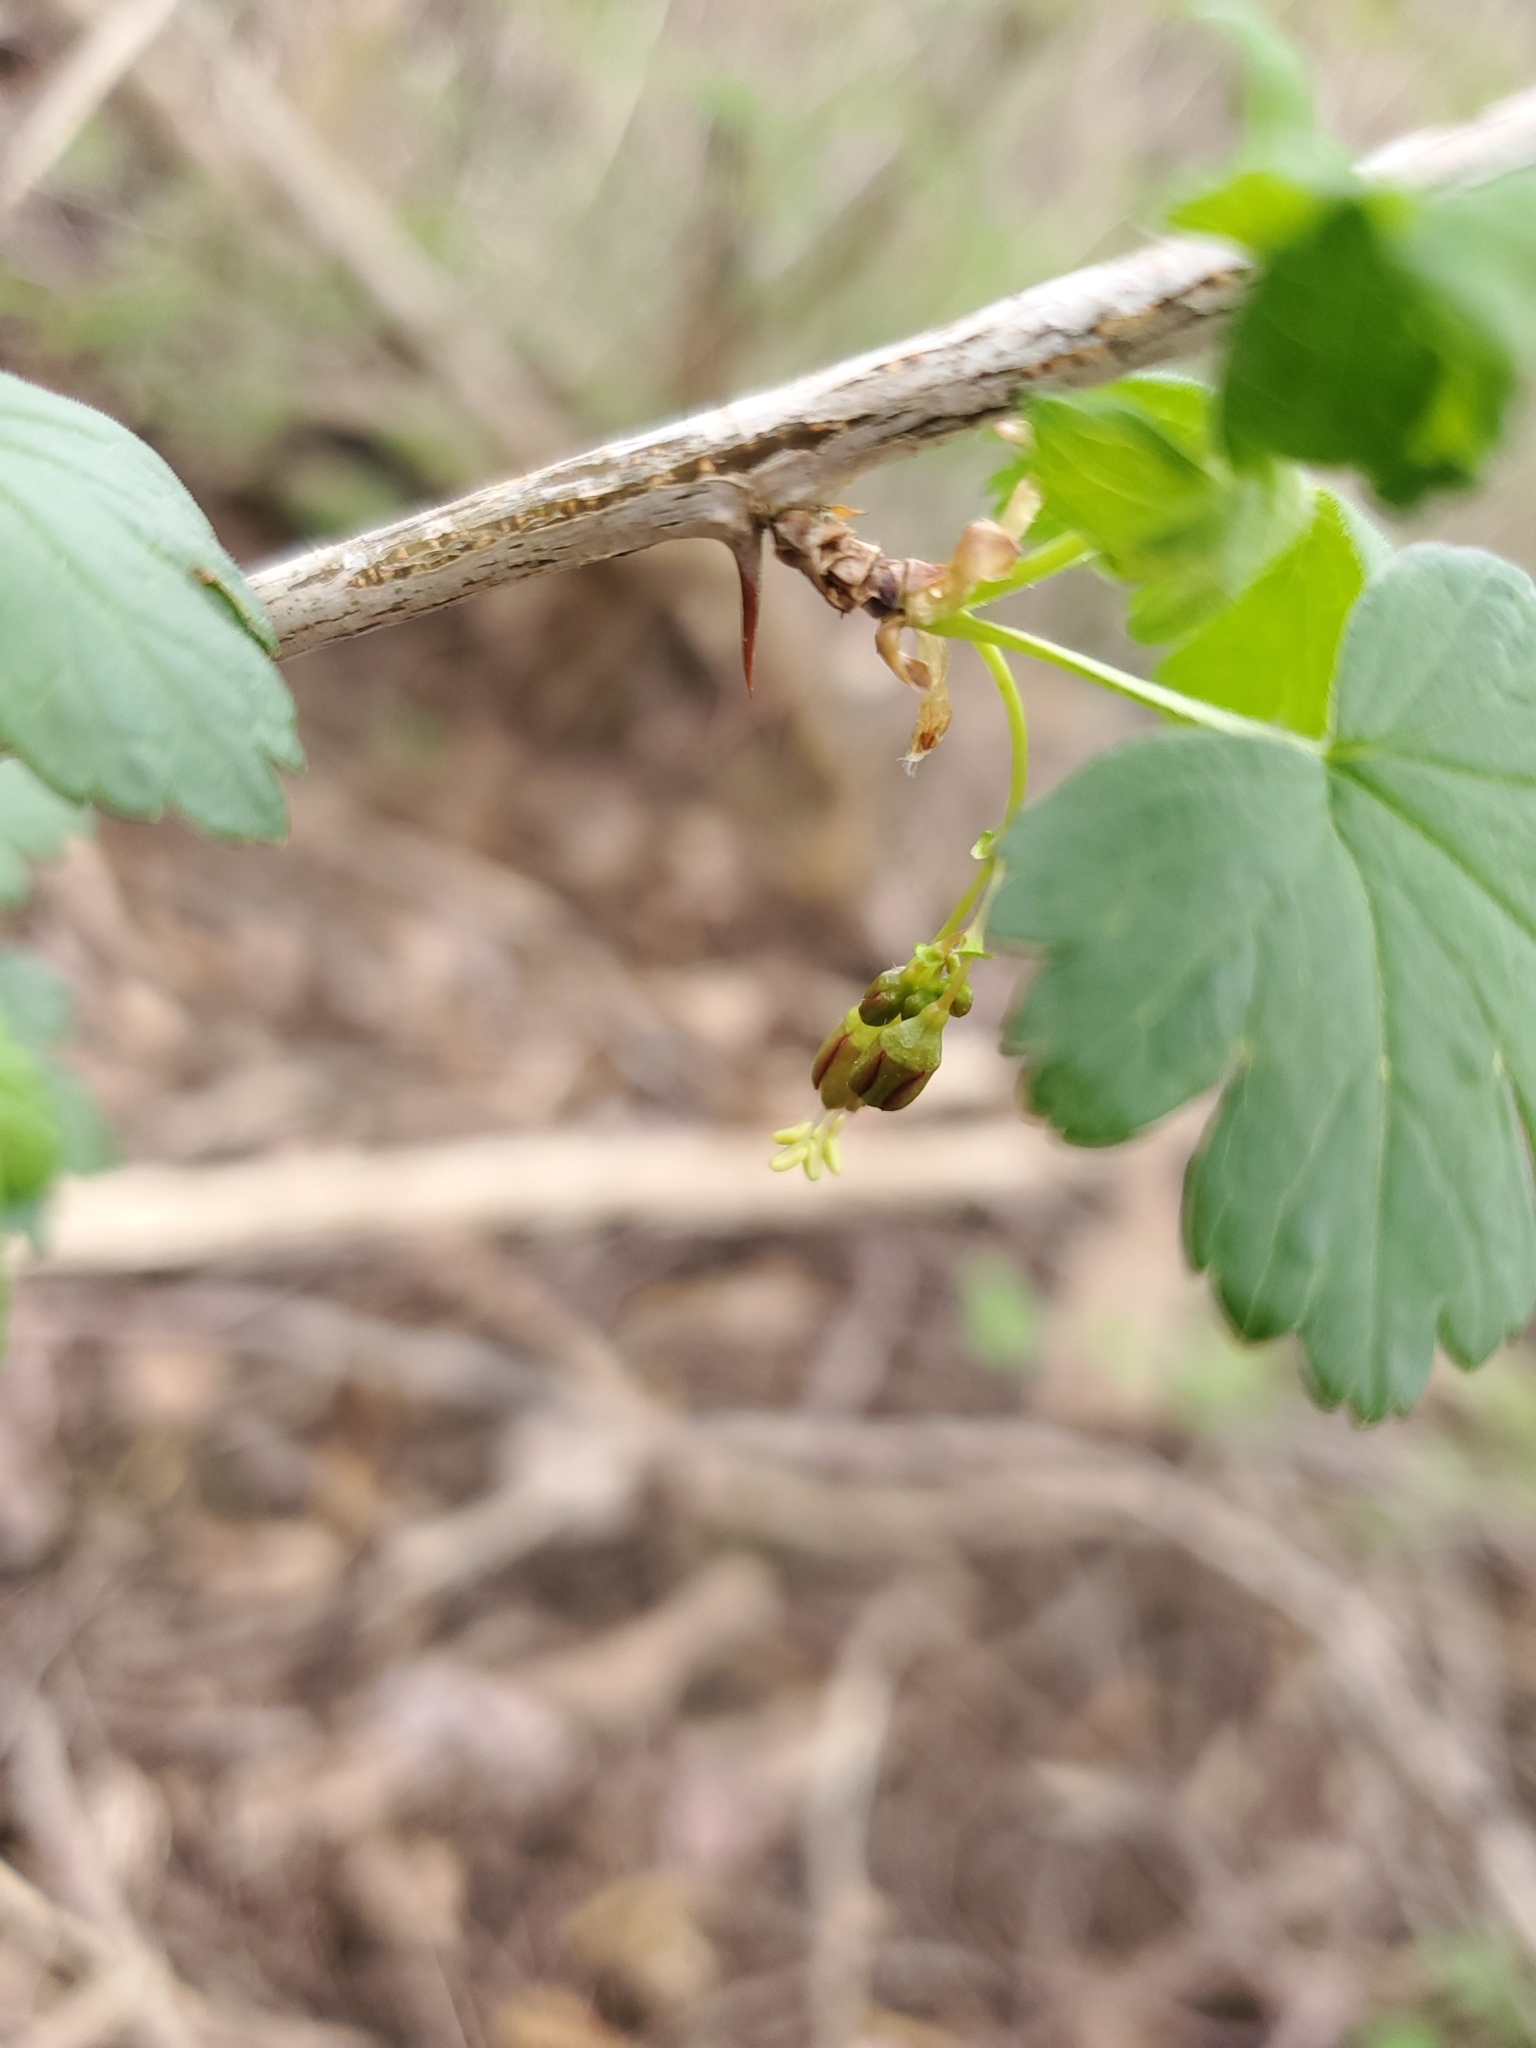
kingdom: Plantae
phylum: Tracheophyta
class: Magnoliopsida
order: Saxifragales
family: Grossulariaceae
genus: Ribes
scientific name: Ribes divaricatum
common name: Wild black gooseberry
